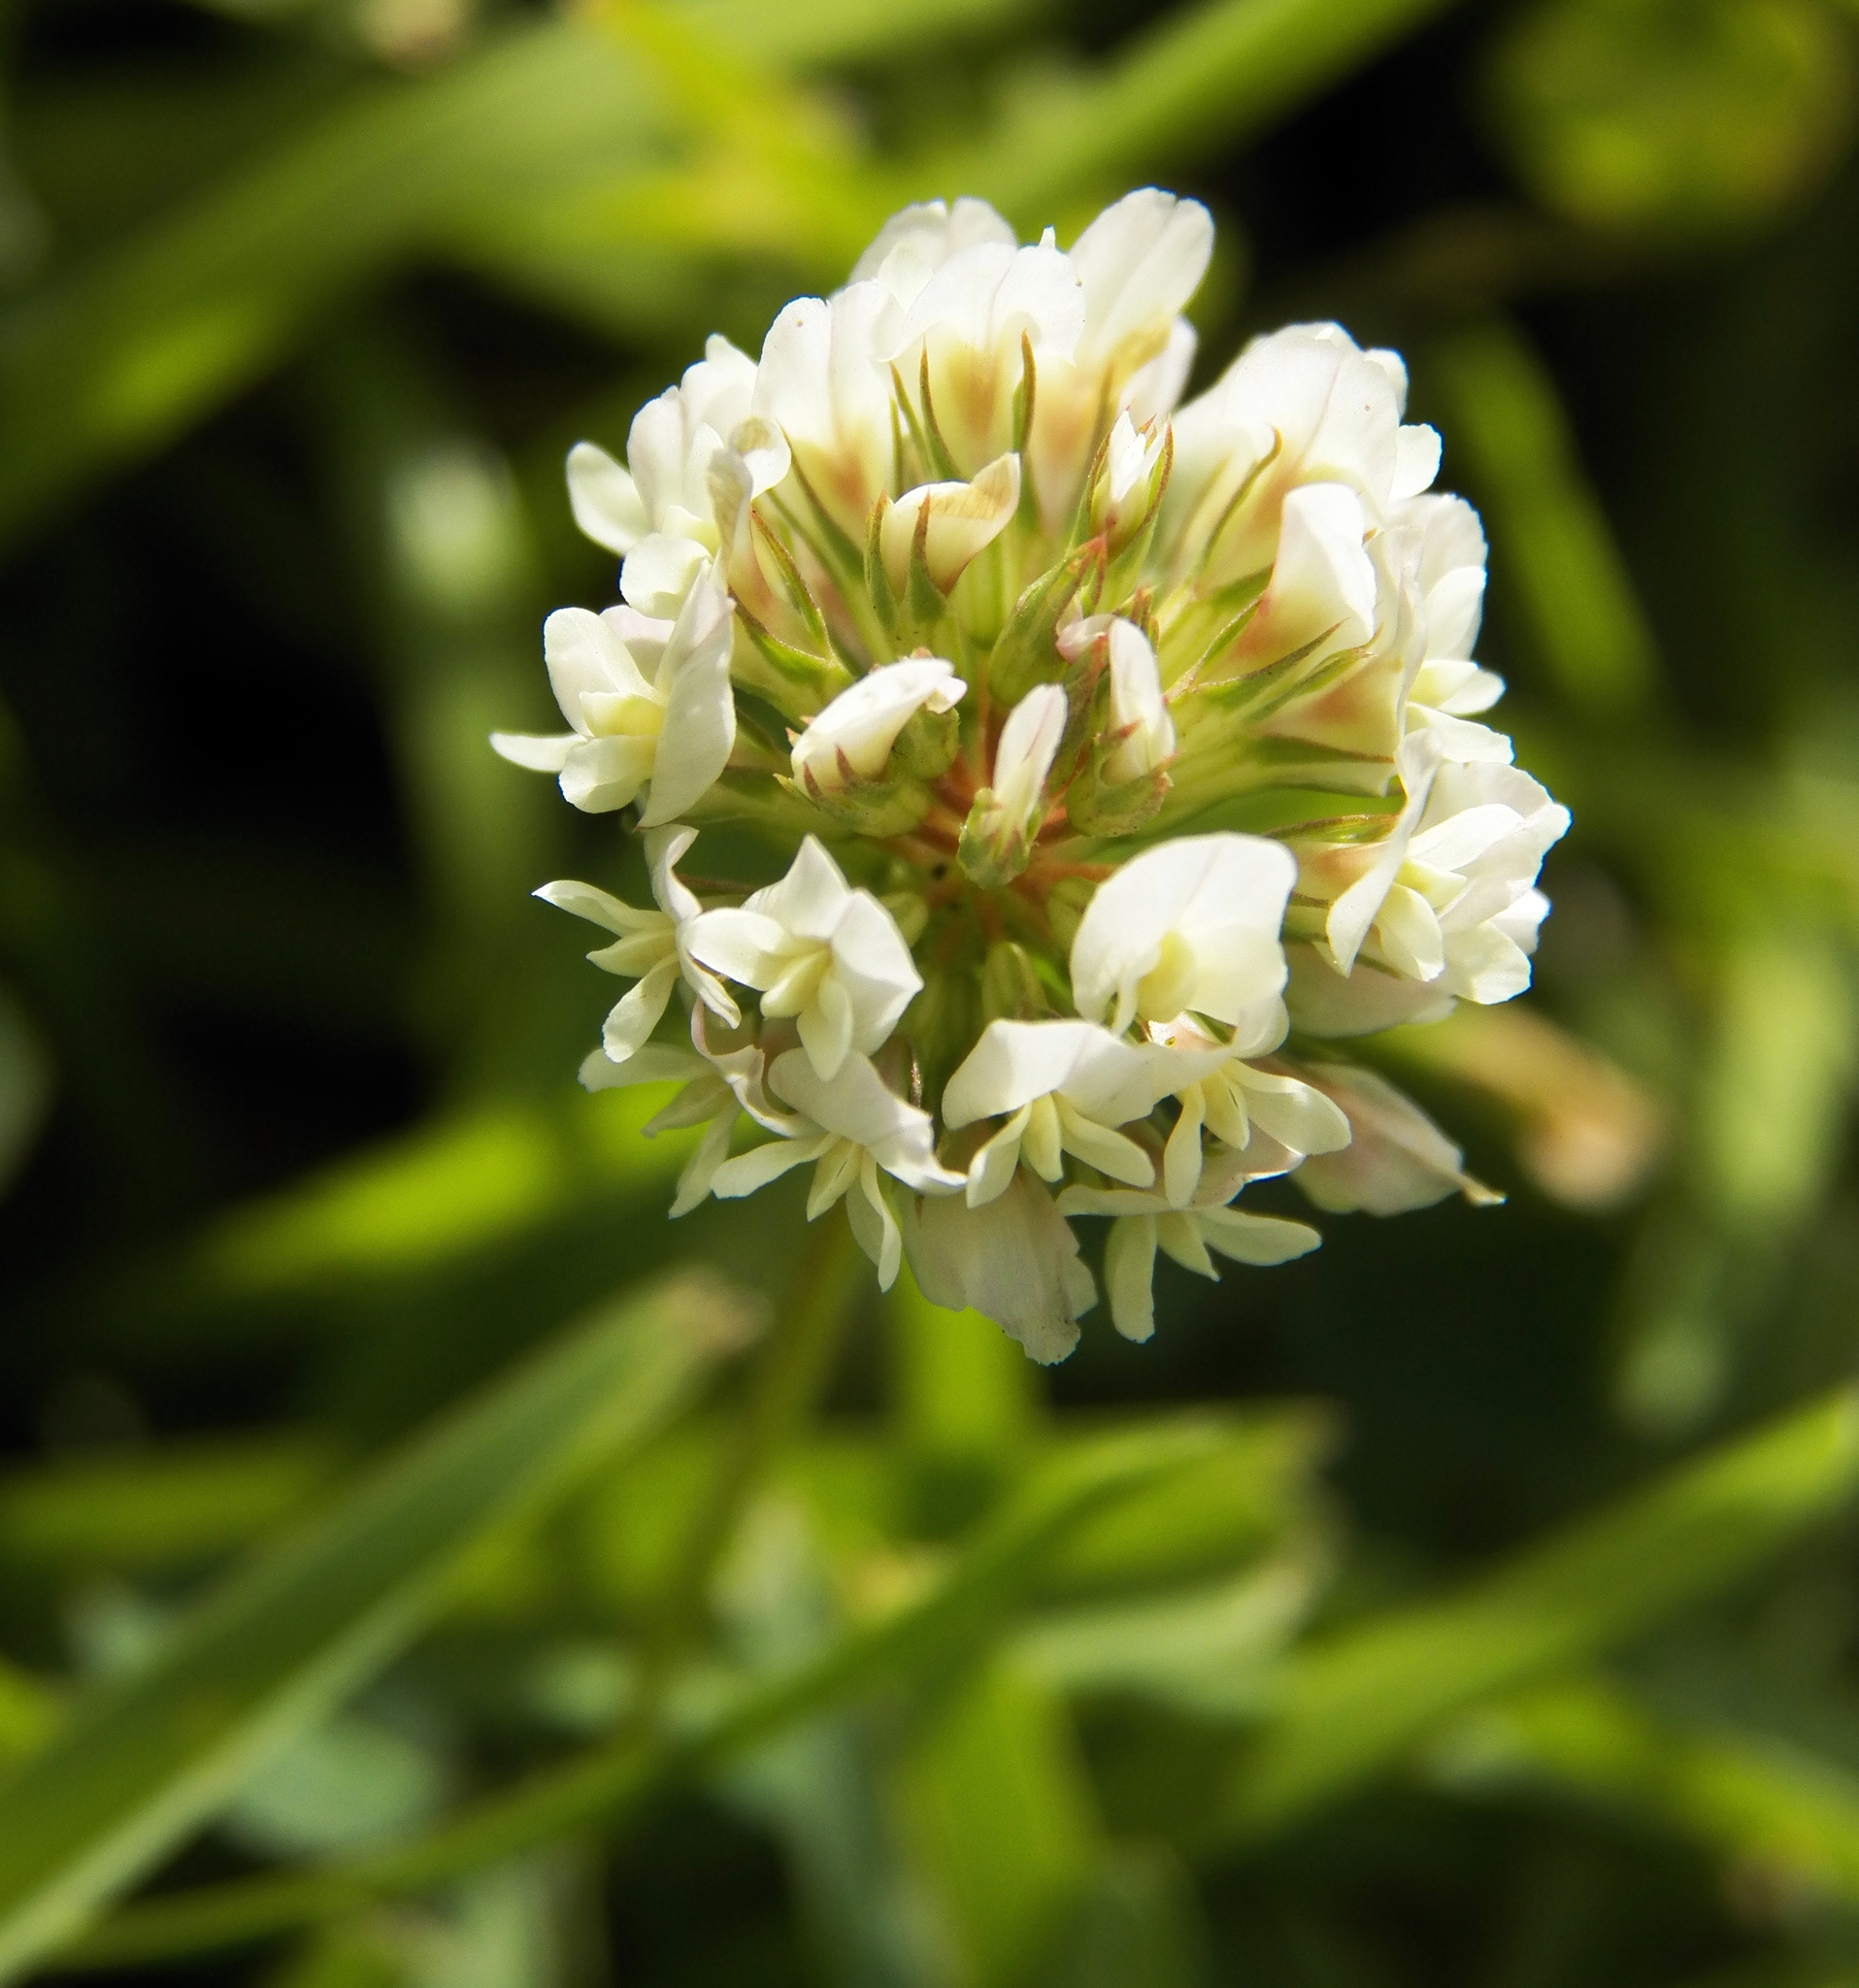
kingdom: Plantae
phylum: Tracheophyta
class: Magnoliopsida
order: Fabales
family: Fabaceae
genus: Trifolium
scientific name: Trifolium repens
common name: White clover
